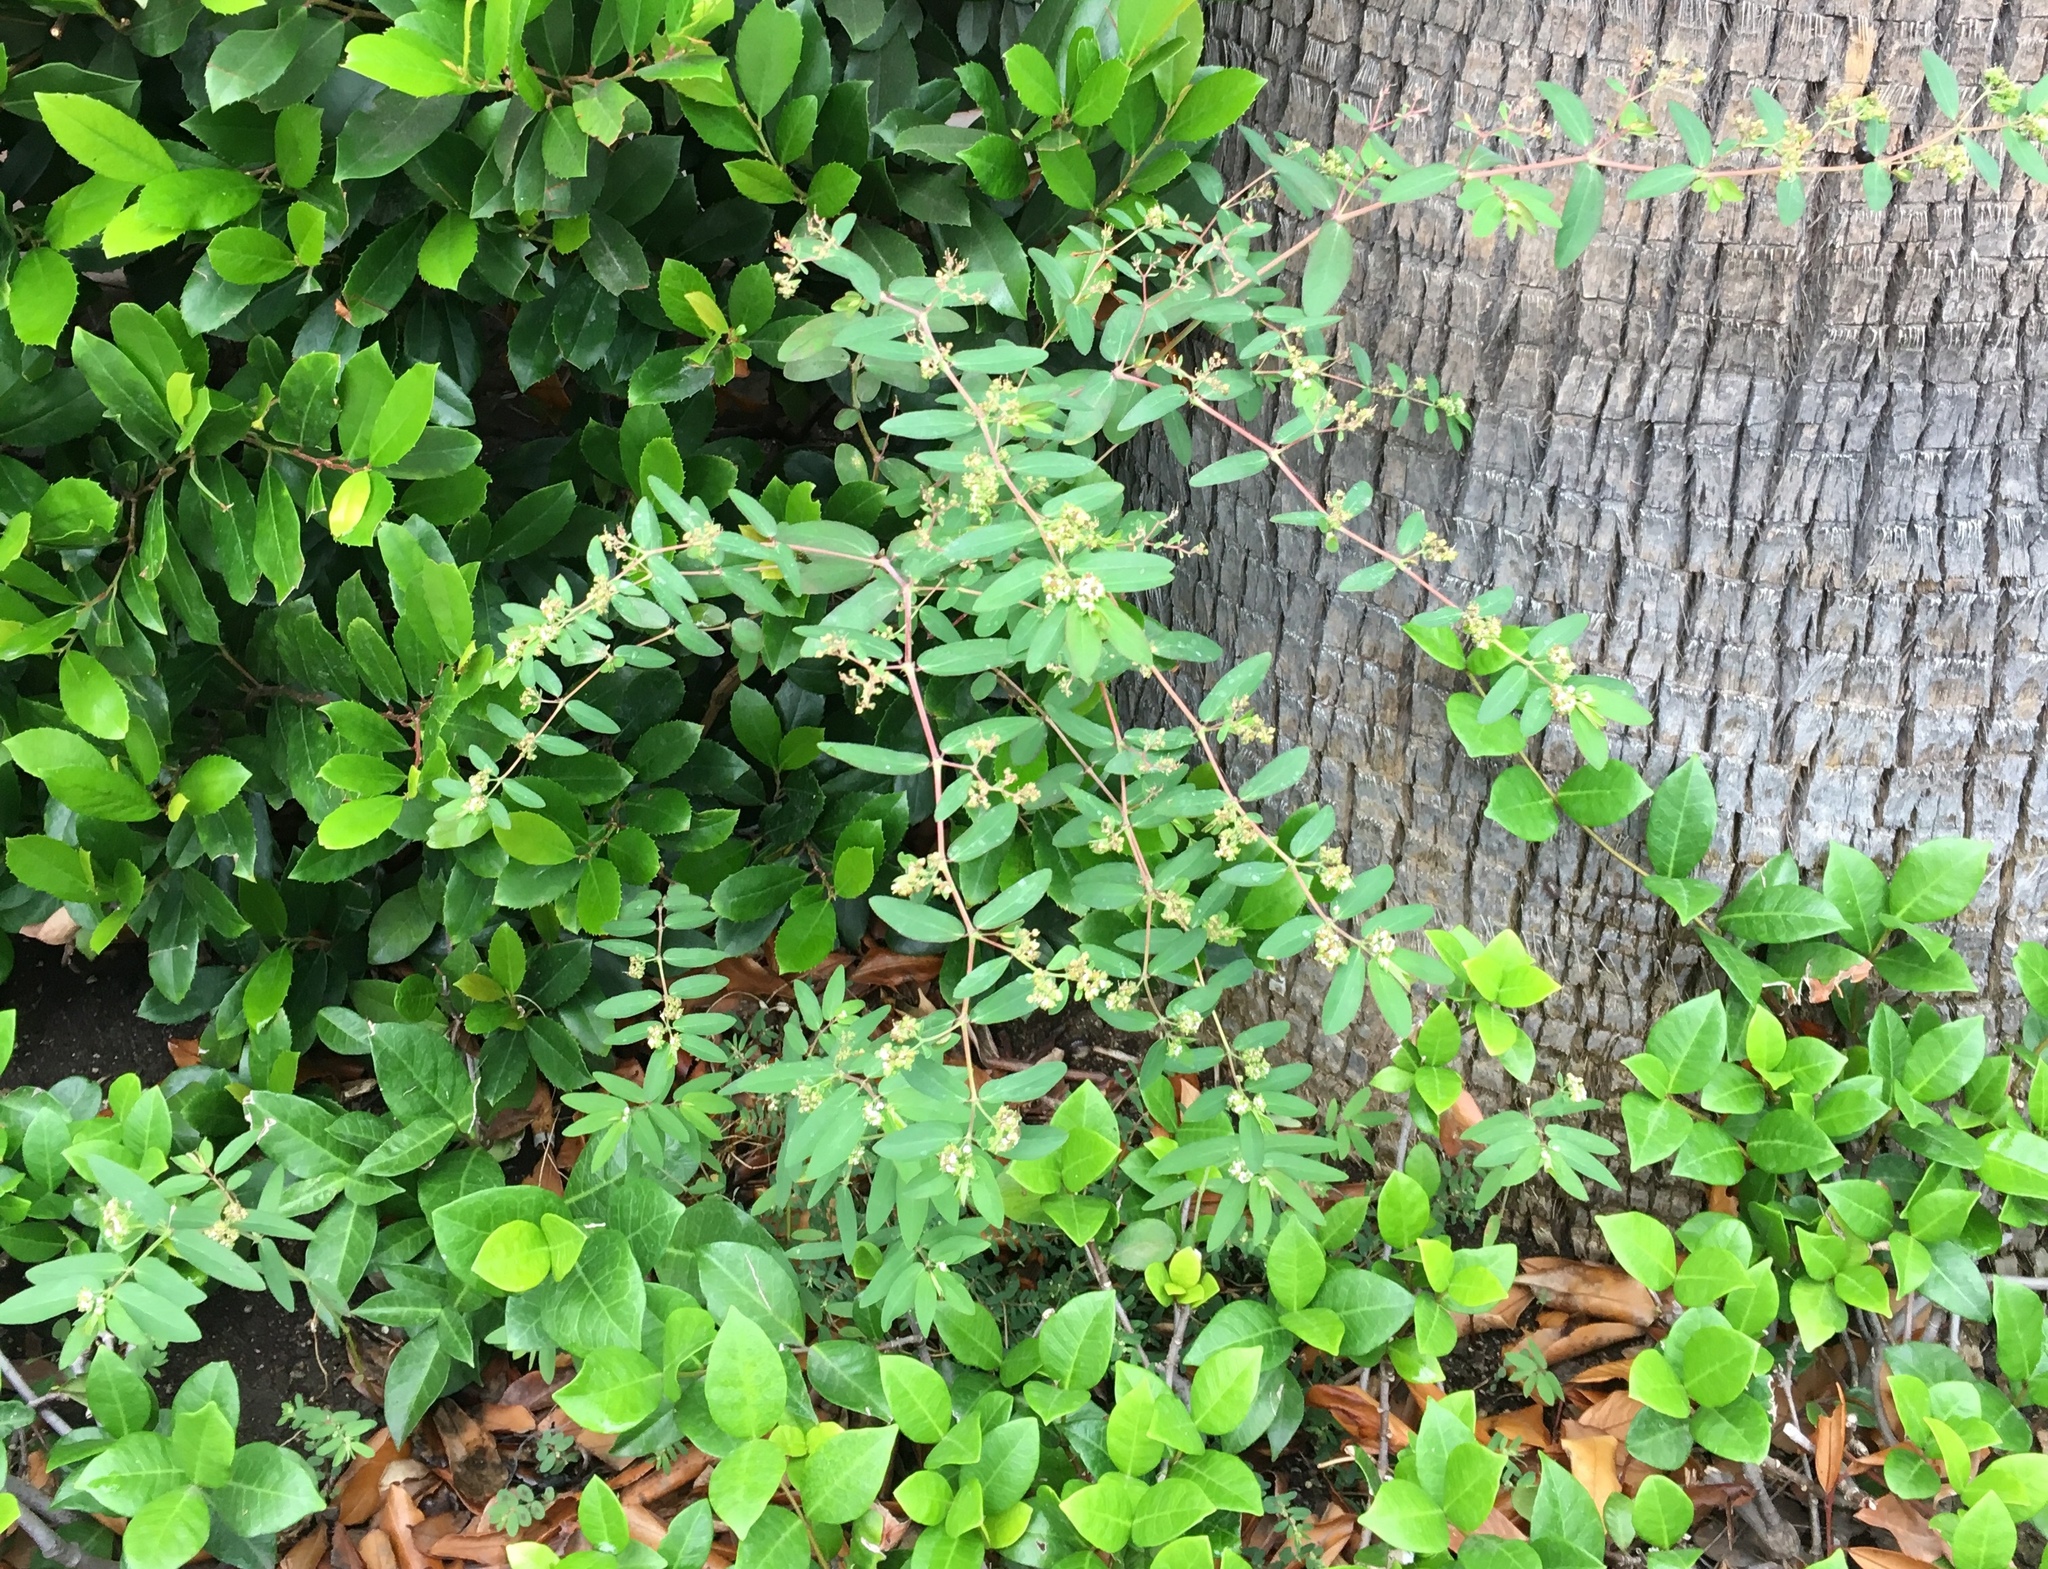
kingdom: Plantae
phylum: Tracheophyta
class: Magnoliopsida
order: Malpighiales
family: Euphorbiaceae
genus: Euphorbia
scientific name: Euphorbia hypericifolia
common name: Graceful sandmat
